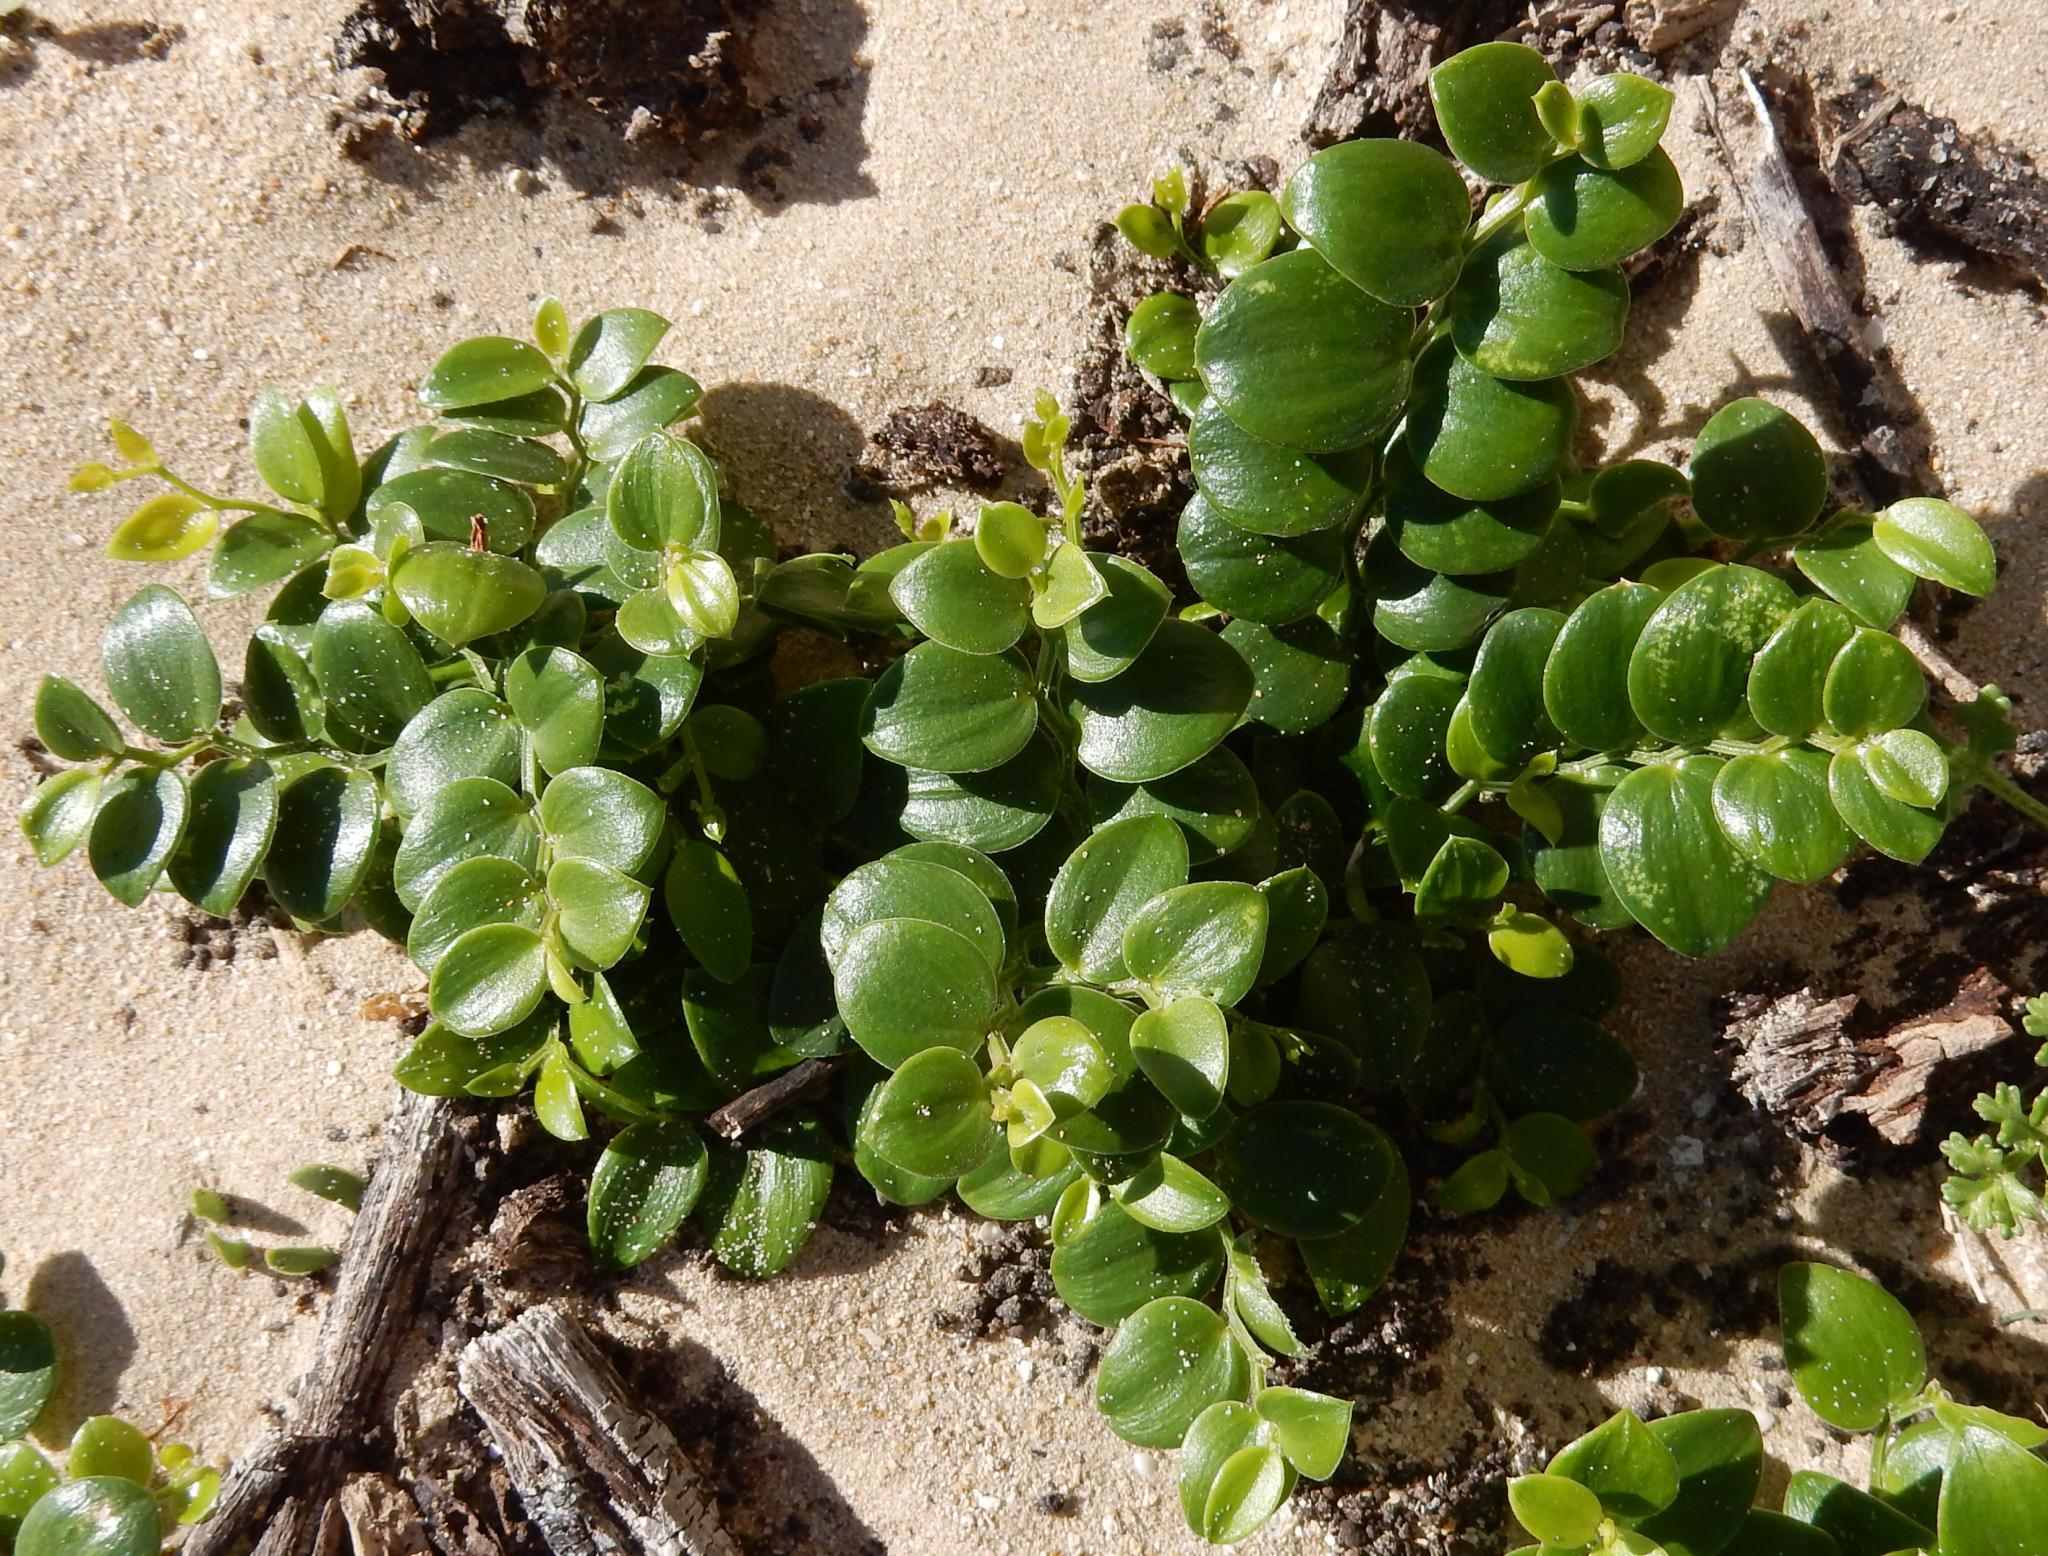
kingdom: Plantae
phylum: Tracheophyta
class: Liliopsida
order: Asparagales
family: Asparagaceae
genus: Asparagus
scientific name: Asparagus asparagoides
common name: African asparagus fern
